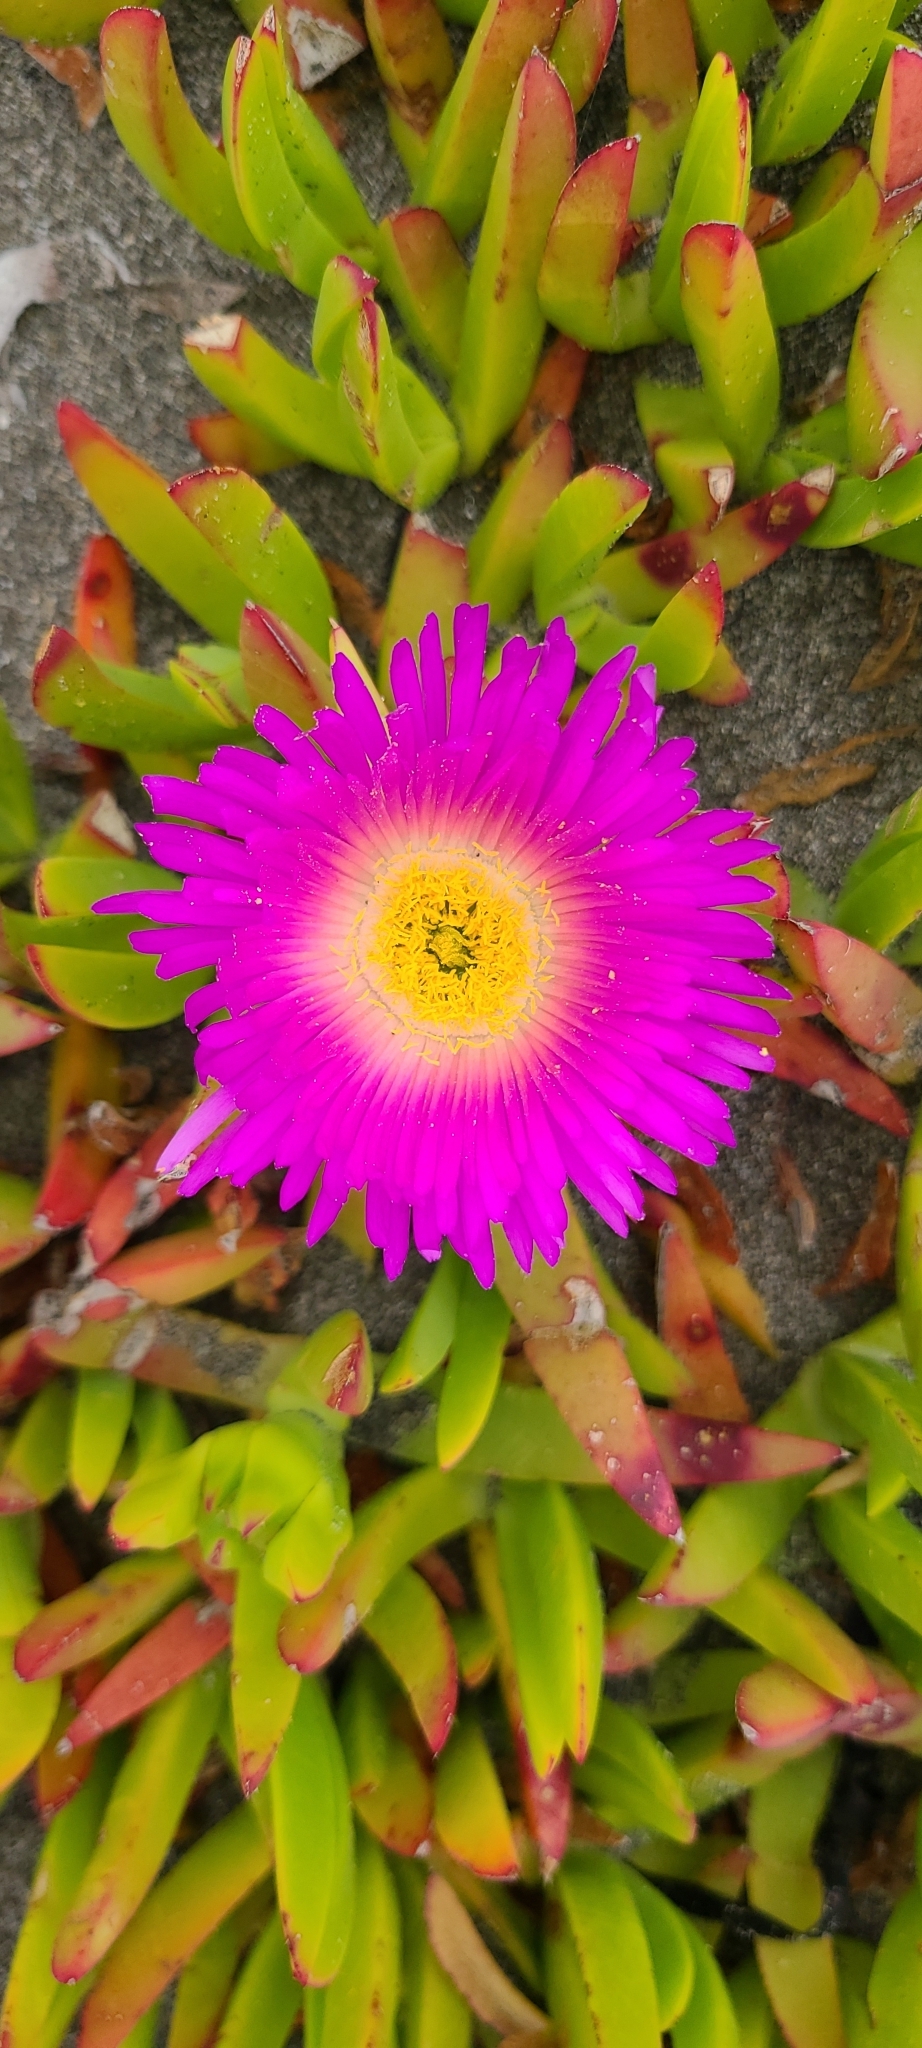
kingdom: Plantae
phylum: Tracheophyta
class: Magnoliopsida
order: Caryophyllales
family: Aizoaceae
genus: Carpobrotus
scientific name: Carpobrotus chilensis
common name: Sea fig
